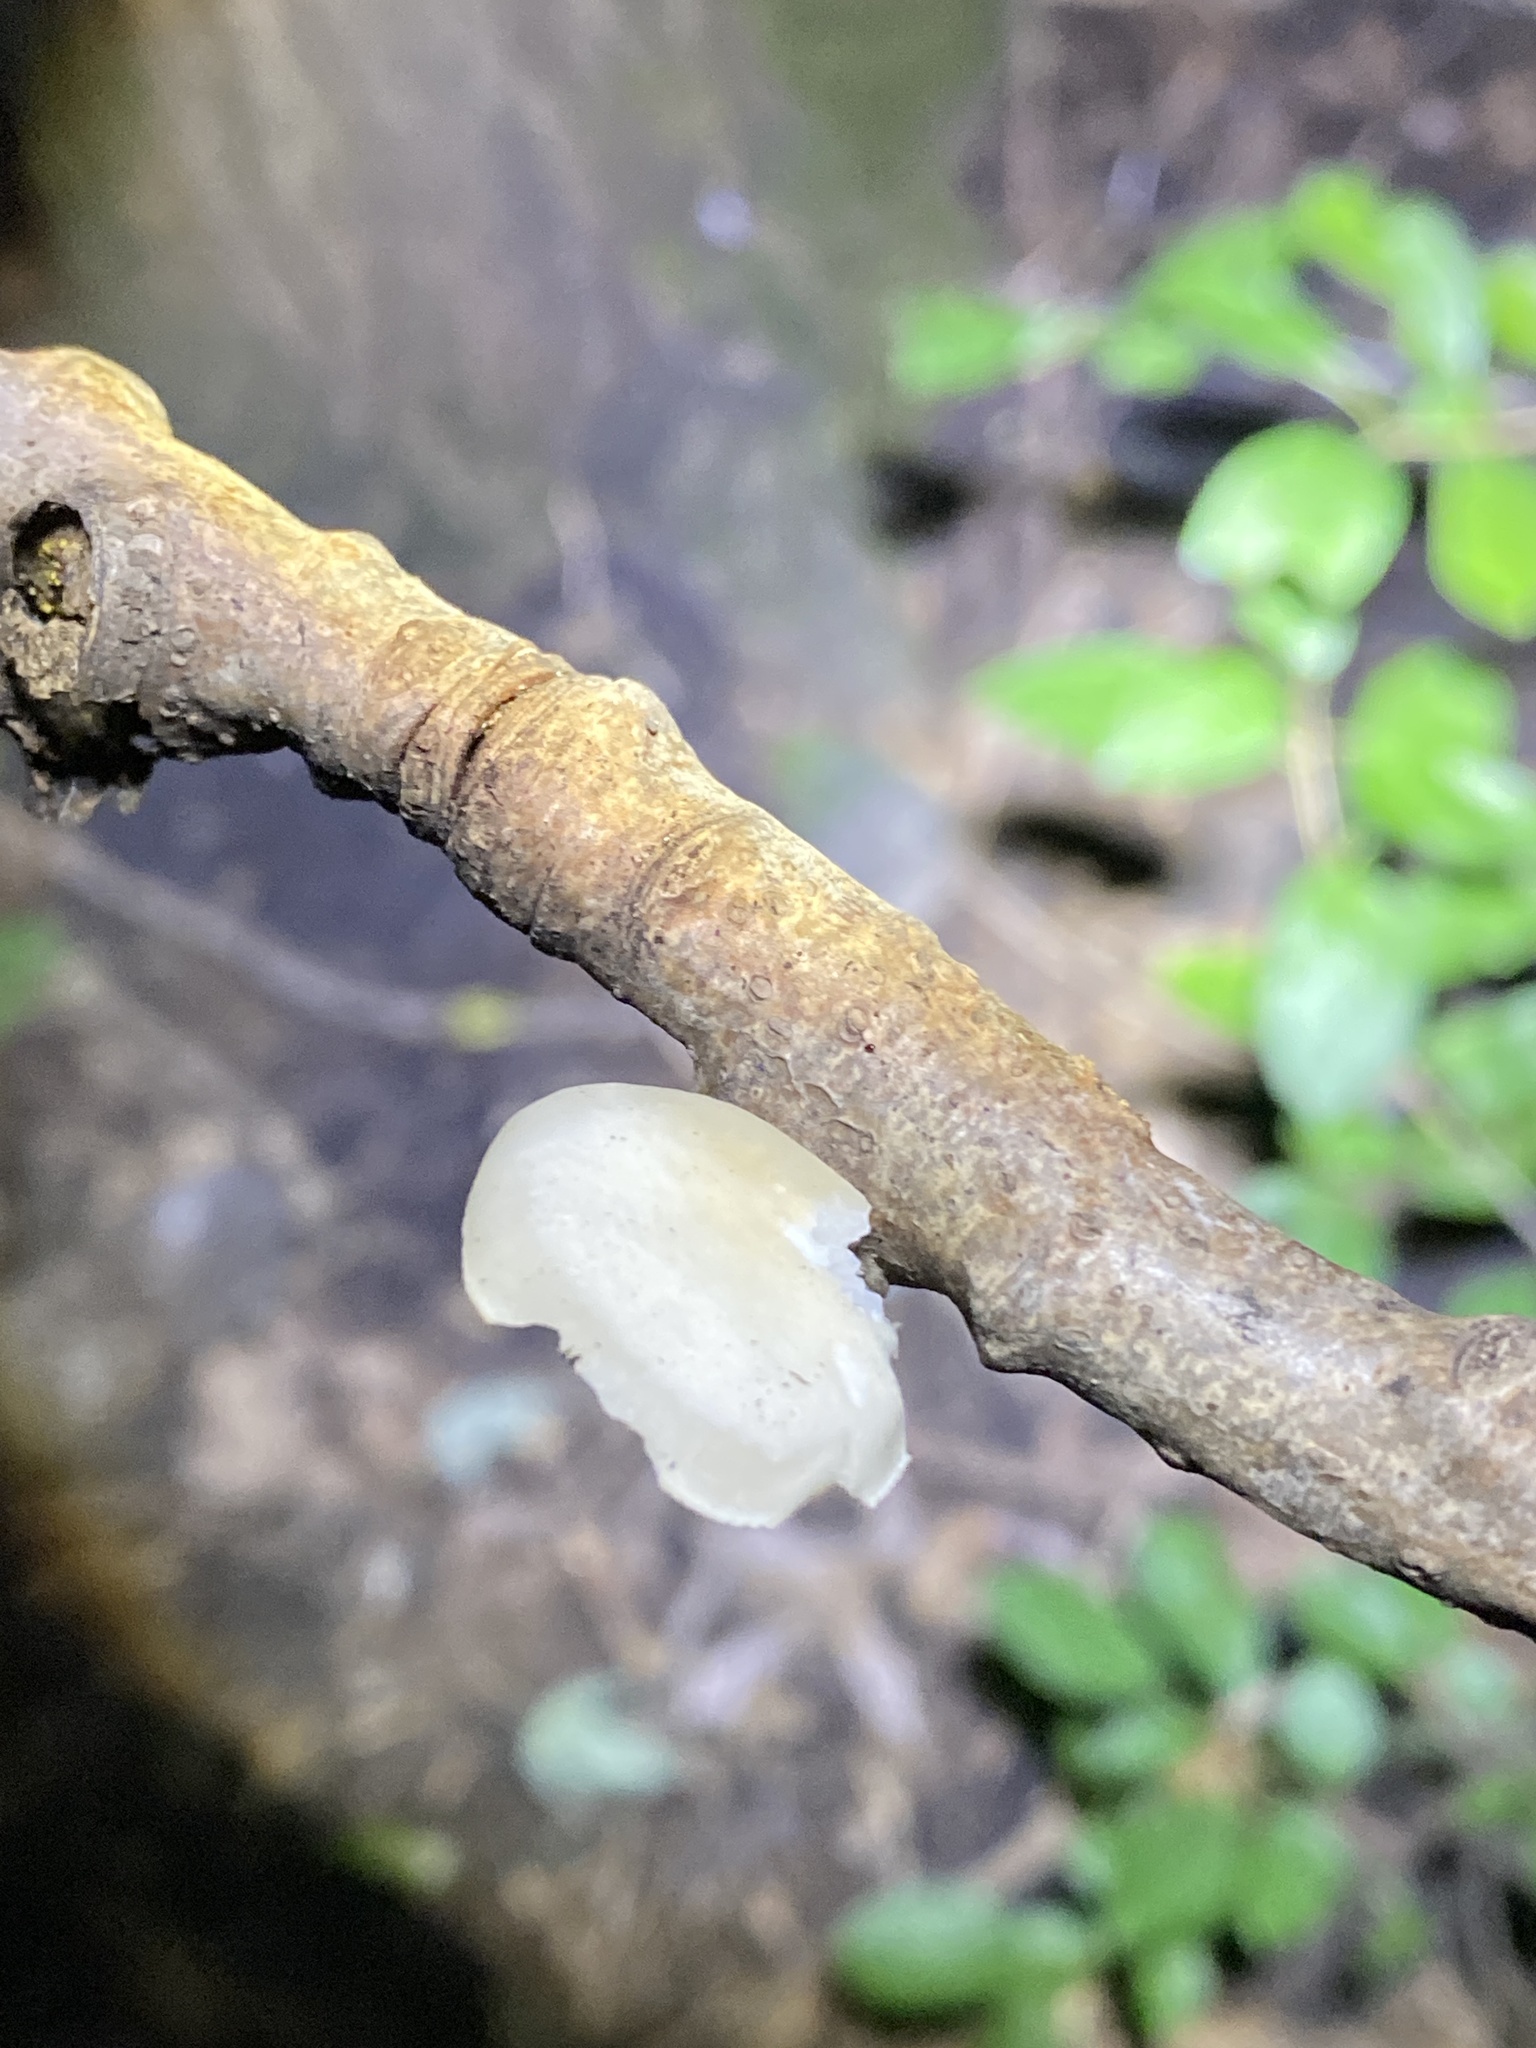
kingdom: Fungi
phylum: Basidiomycota
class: Agaricomycetes
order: Agaricales
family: Pleurotaceae
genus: Pleurotus
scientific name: Pleurotus pulmonarius
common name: Pale oyster
